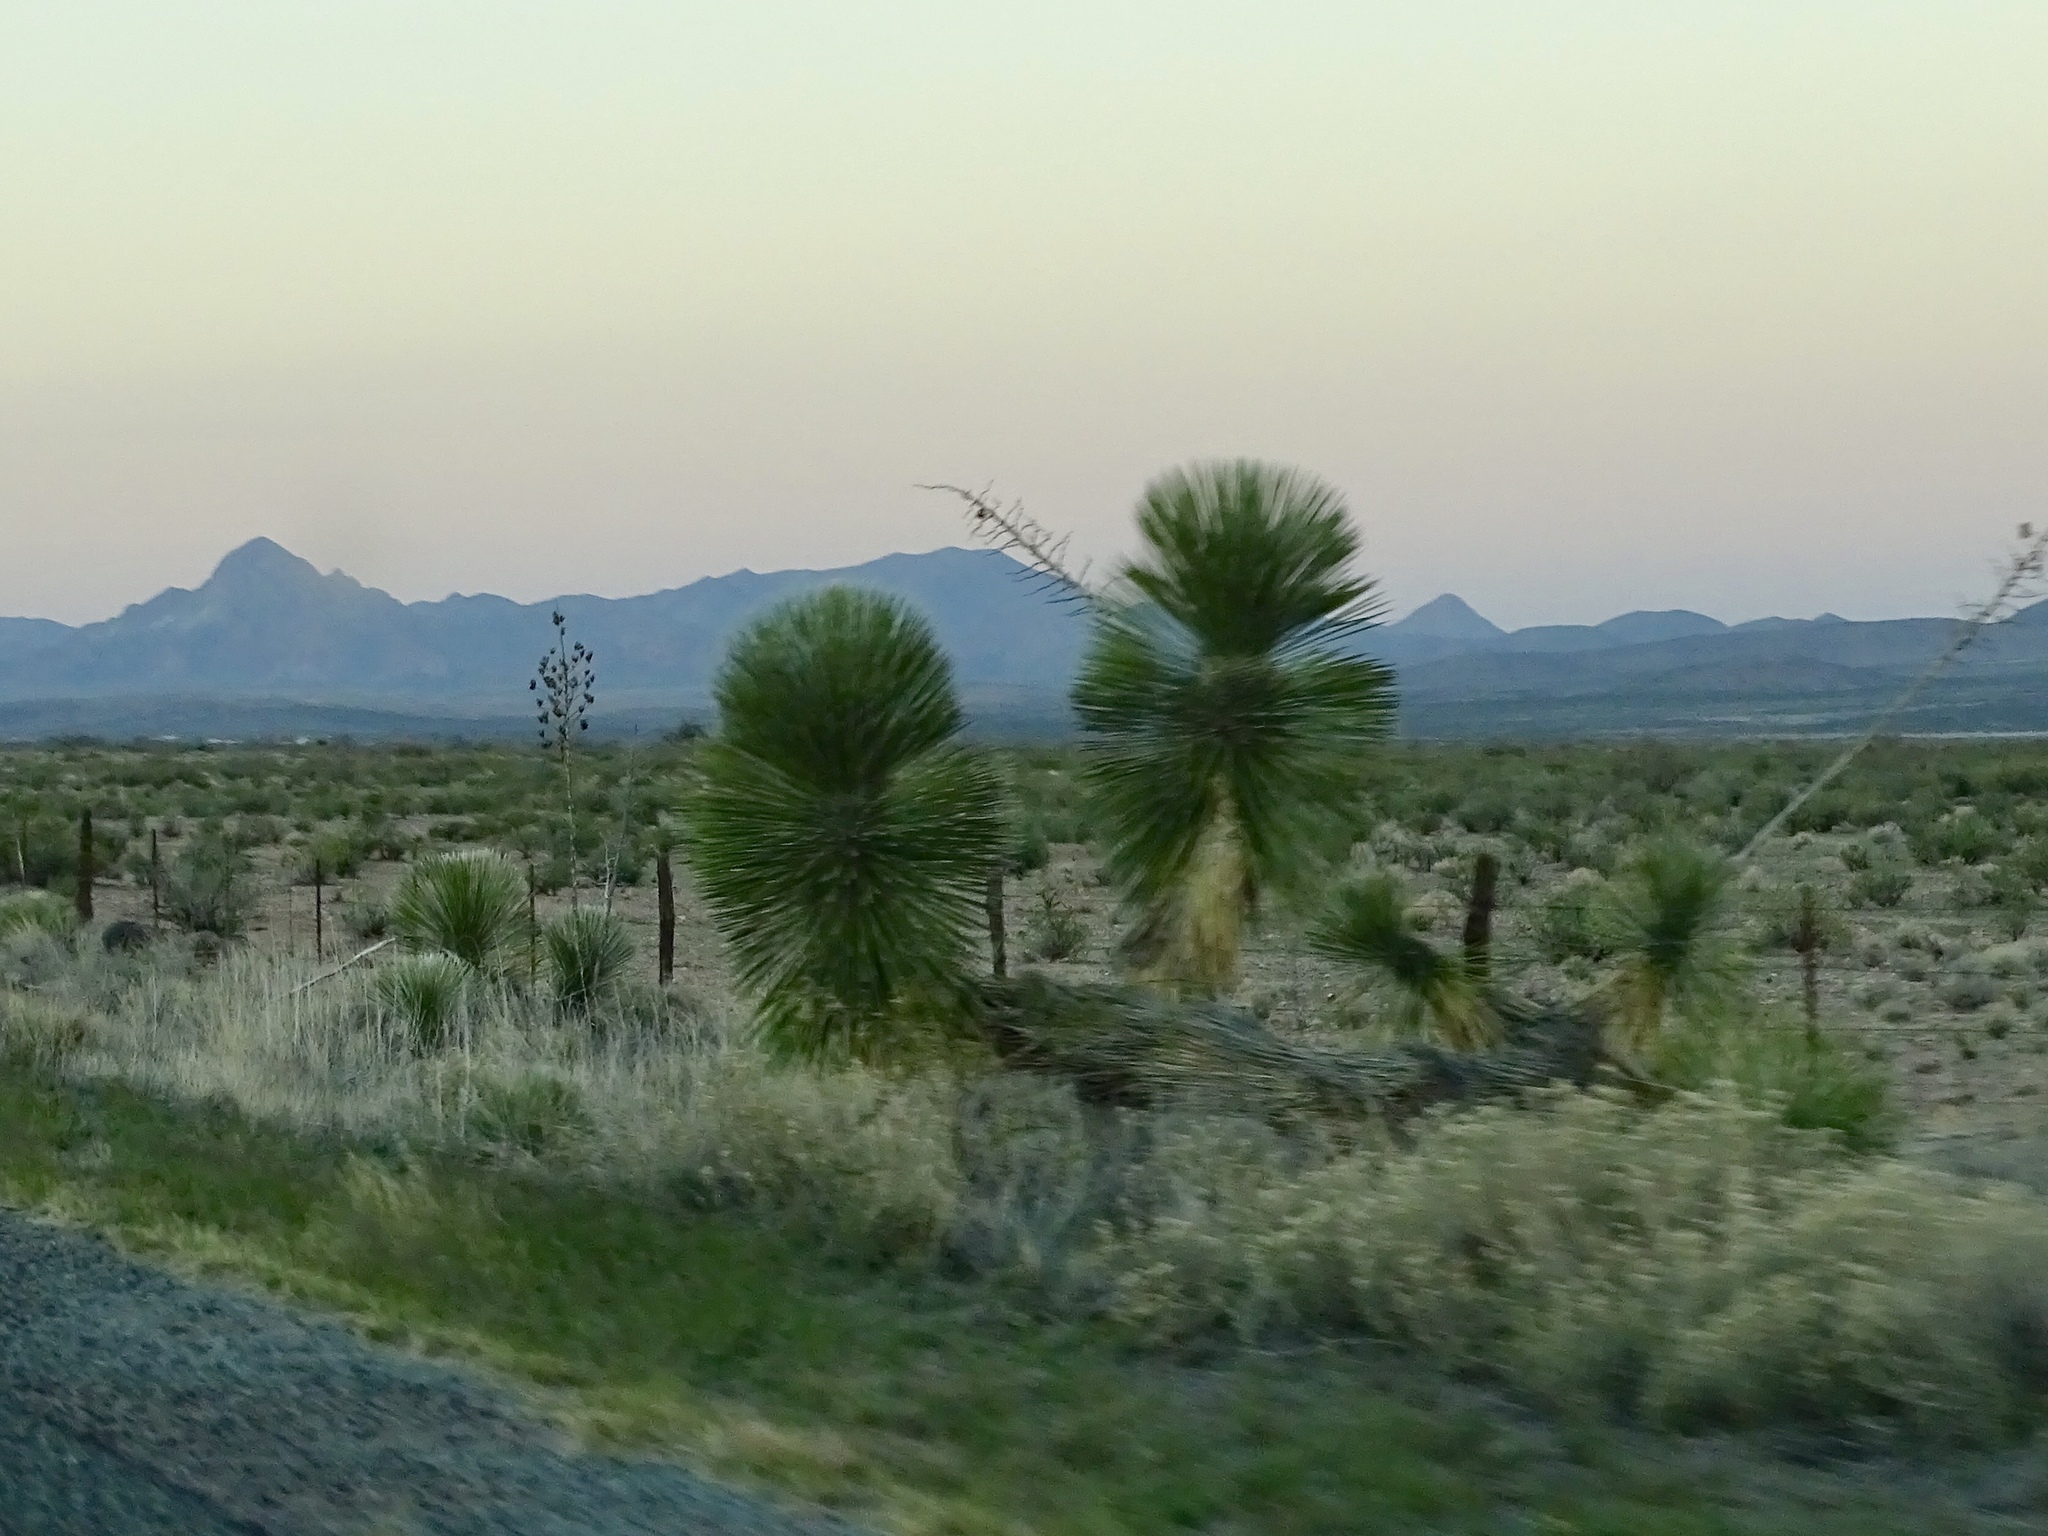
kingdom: Plantae
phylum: Tracheophyta
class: Liliopsida
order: Asparagales
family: Asparagaceae
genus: Yucca
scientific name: Yucca elata
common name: Palmella
